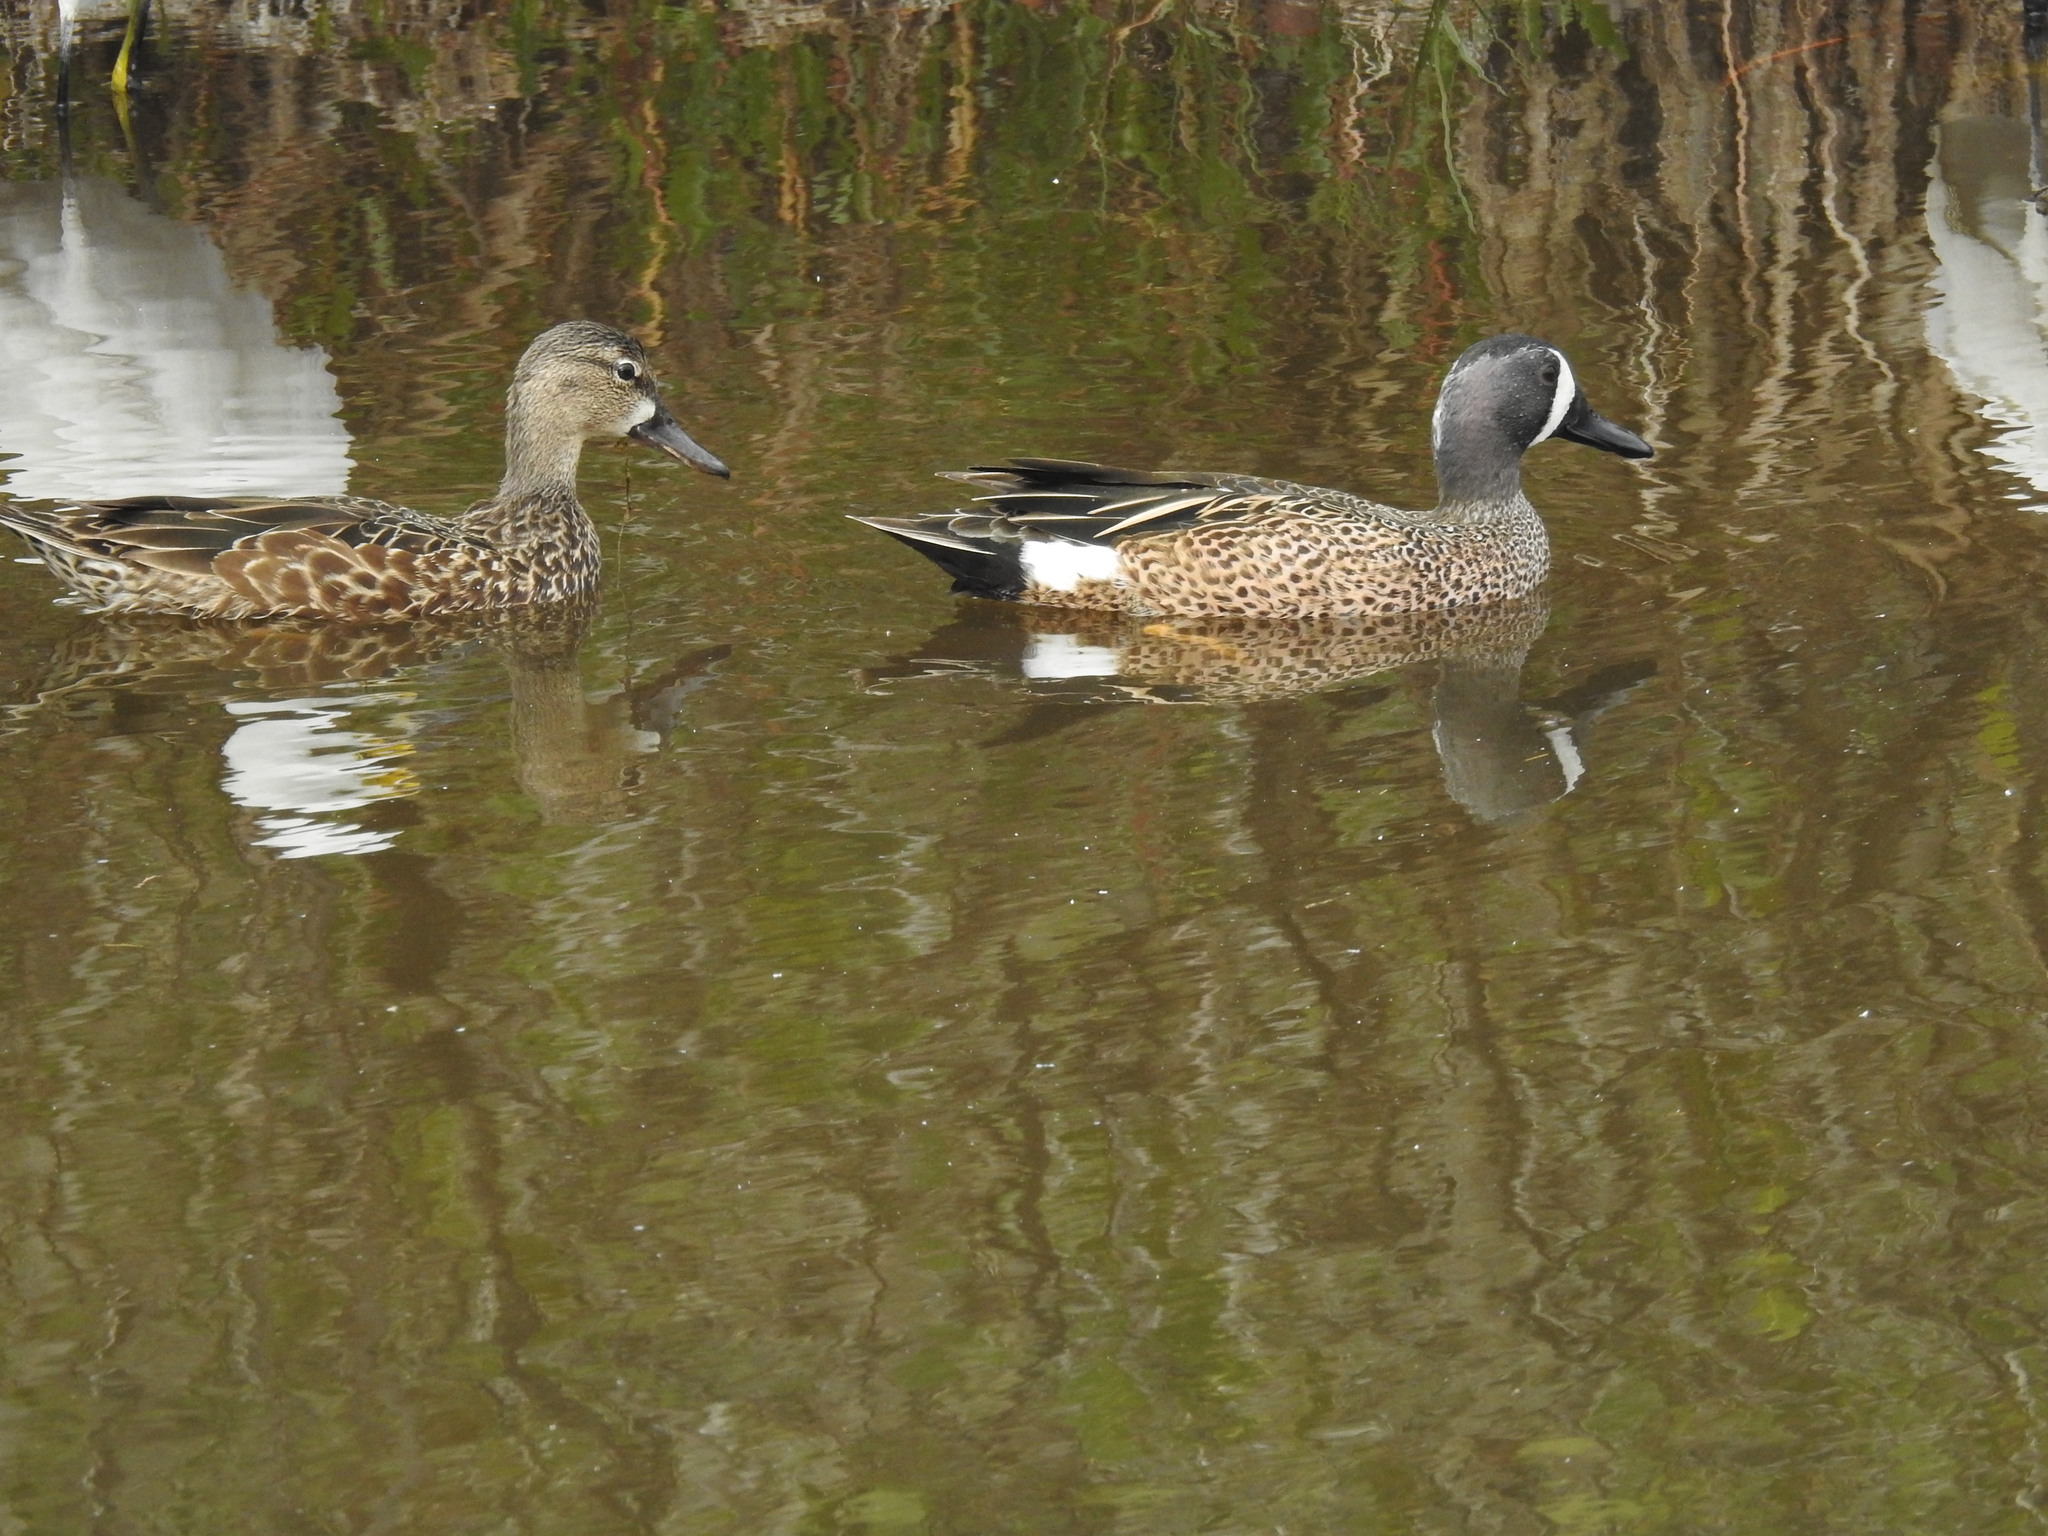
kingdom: Animalia
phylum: Chordata
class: Aves
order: Anseriformes
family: Anatidae
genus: Spatula
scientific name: Spatula discors
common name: Blue-winged teal
